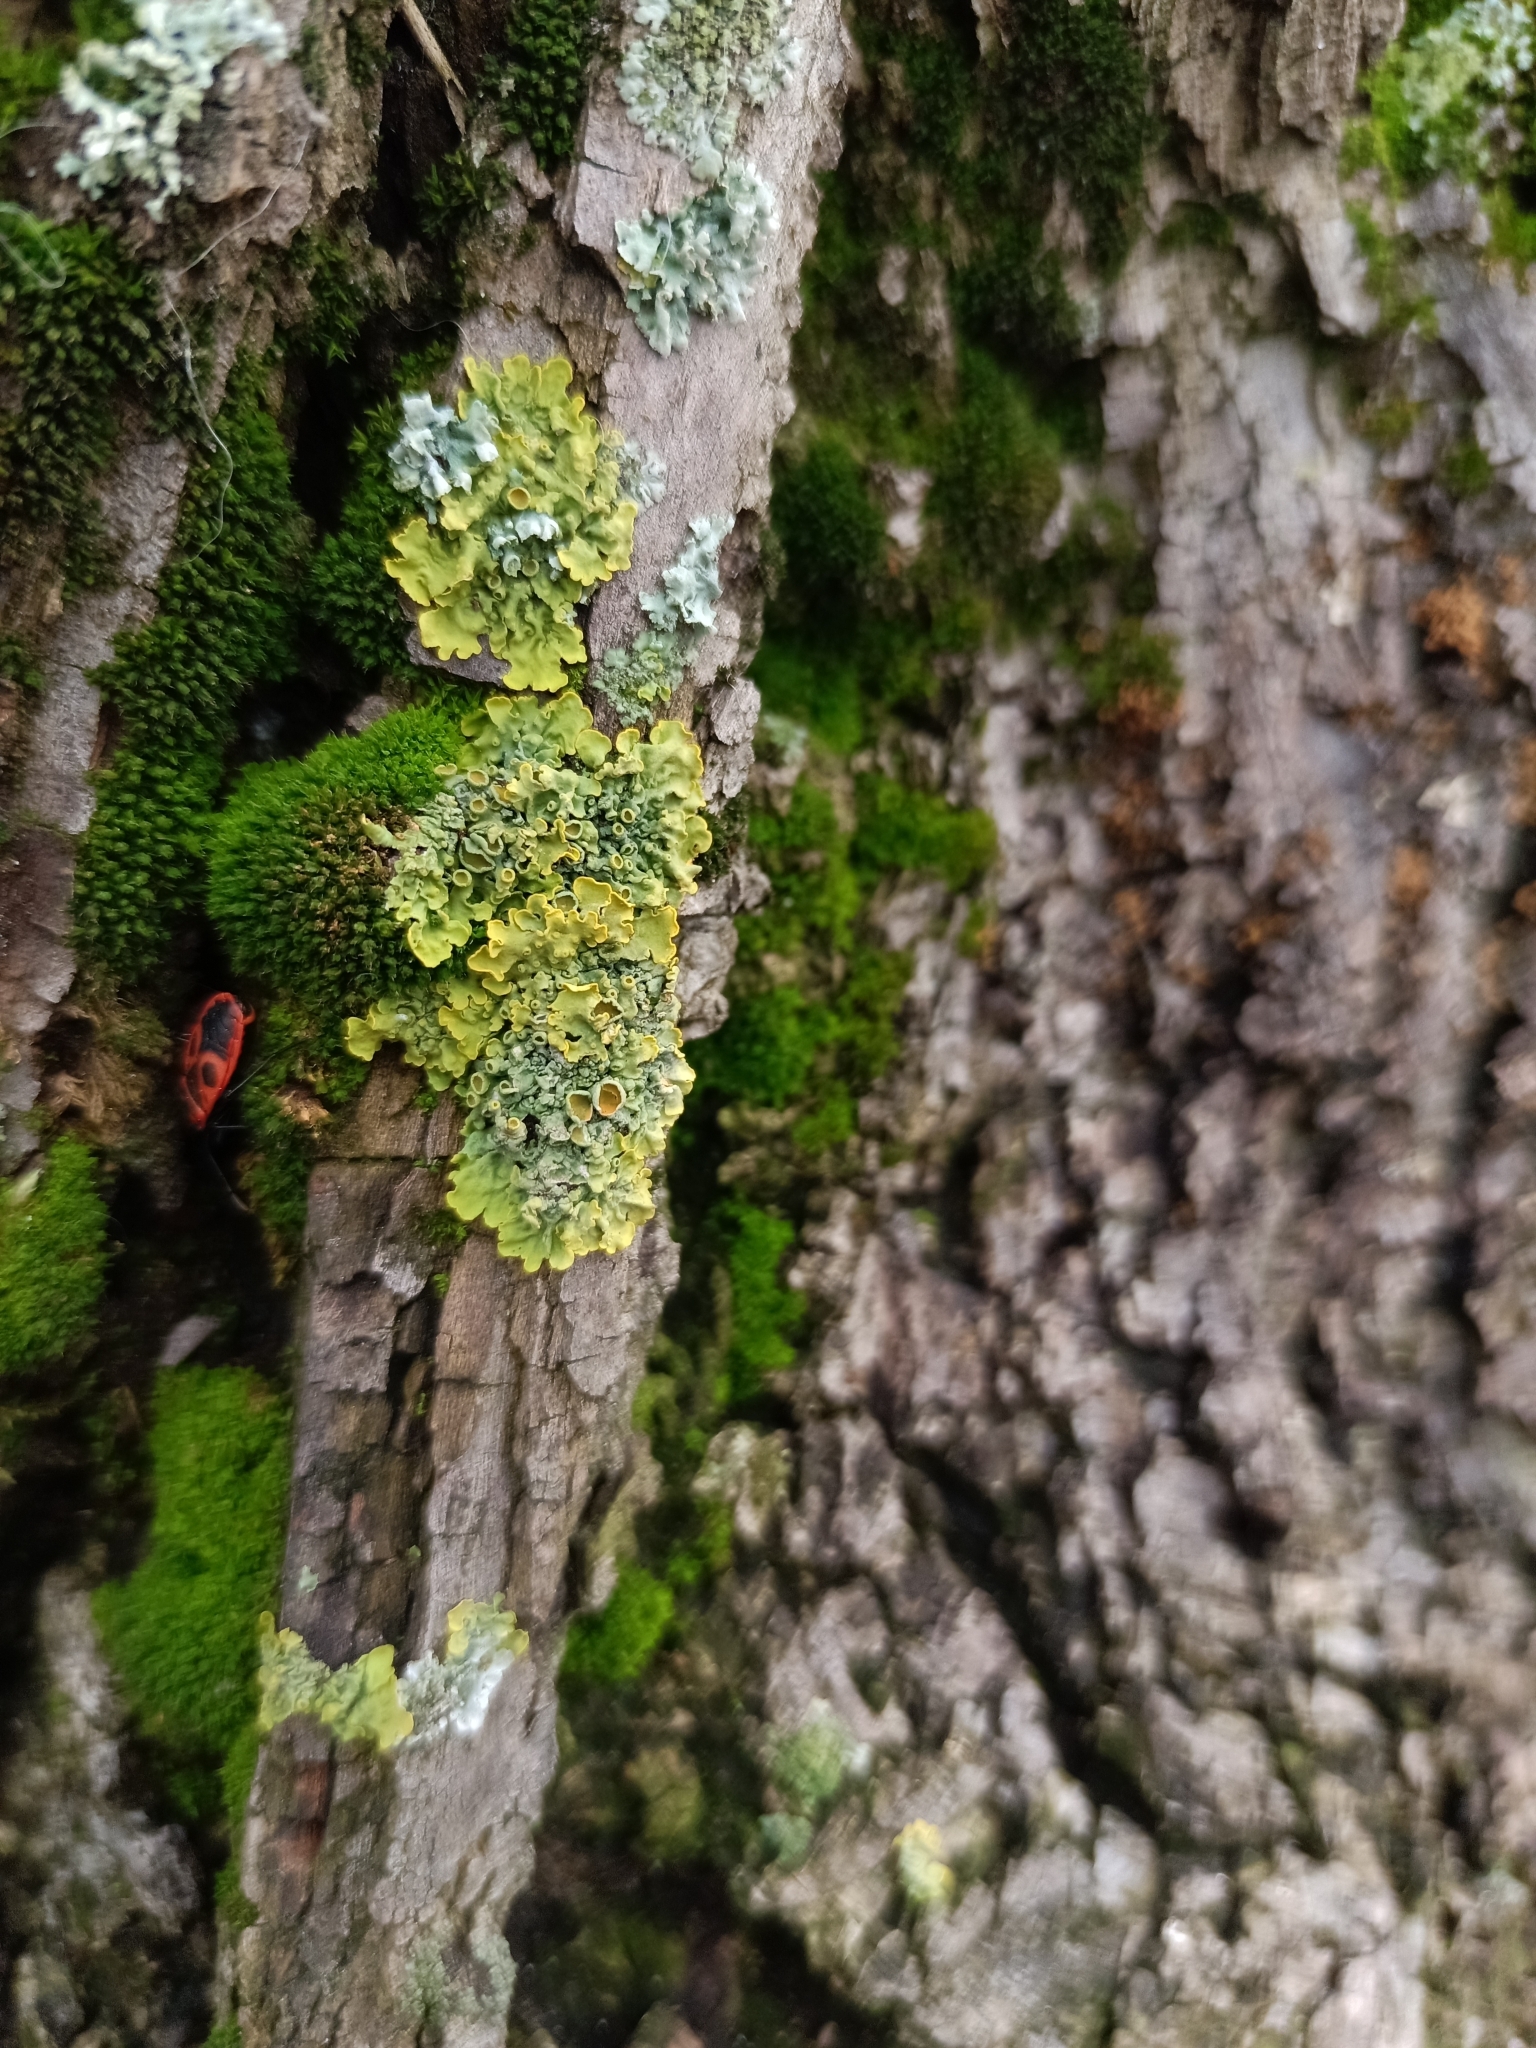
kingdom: Fungi
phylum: Ascomycota
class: Lecanoromycetes
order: Teloschistales
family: Teloschistaceae
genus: Xanthoria
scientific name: Xanthoria parietina
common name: Common orange lichen
